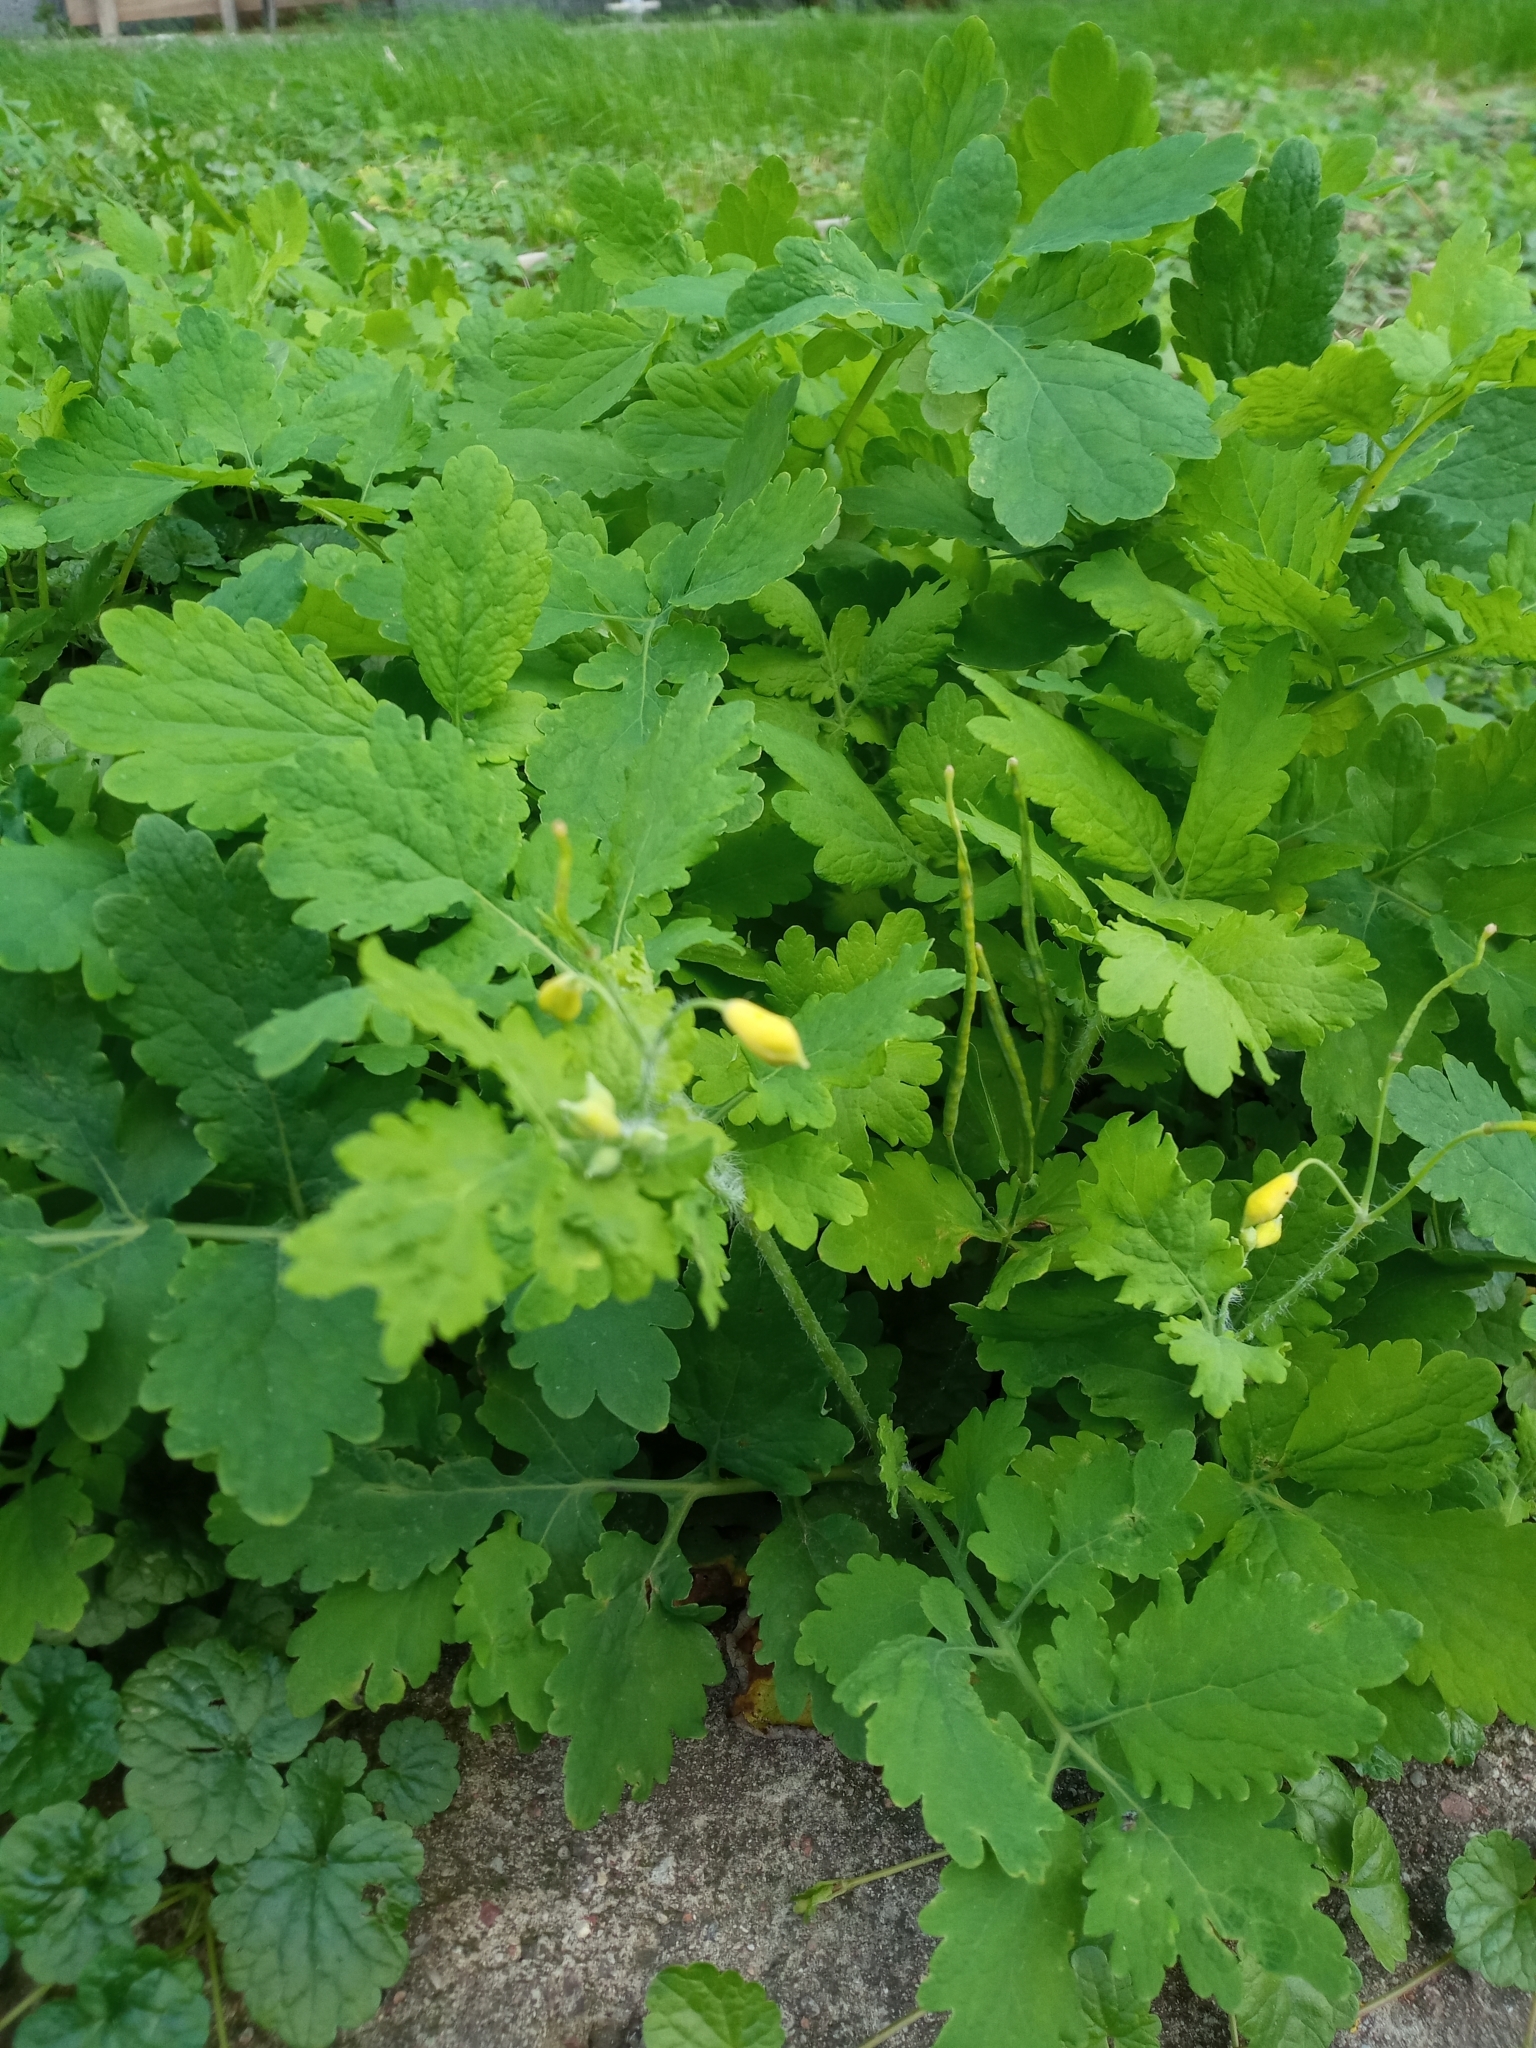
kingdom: Plantae
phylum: Tracheophyta
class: Magnoliopsida
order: Ranunculales
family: Papaveraceae
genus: Chelidonium
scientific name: Chelidonium majus
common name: Greater celandine
